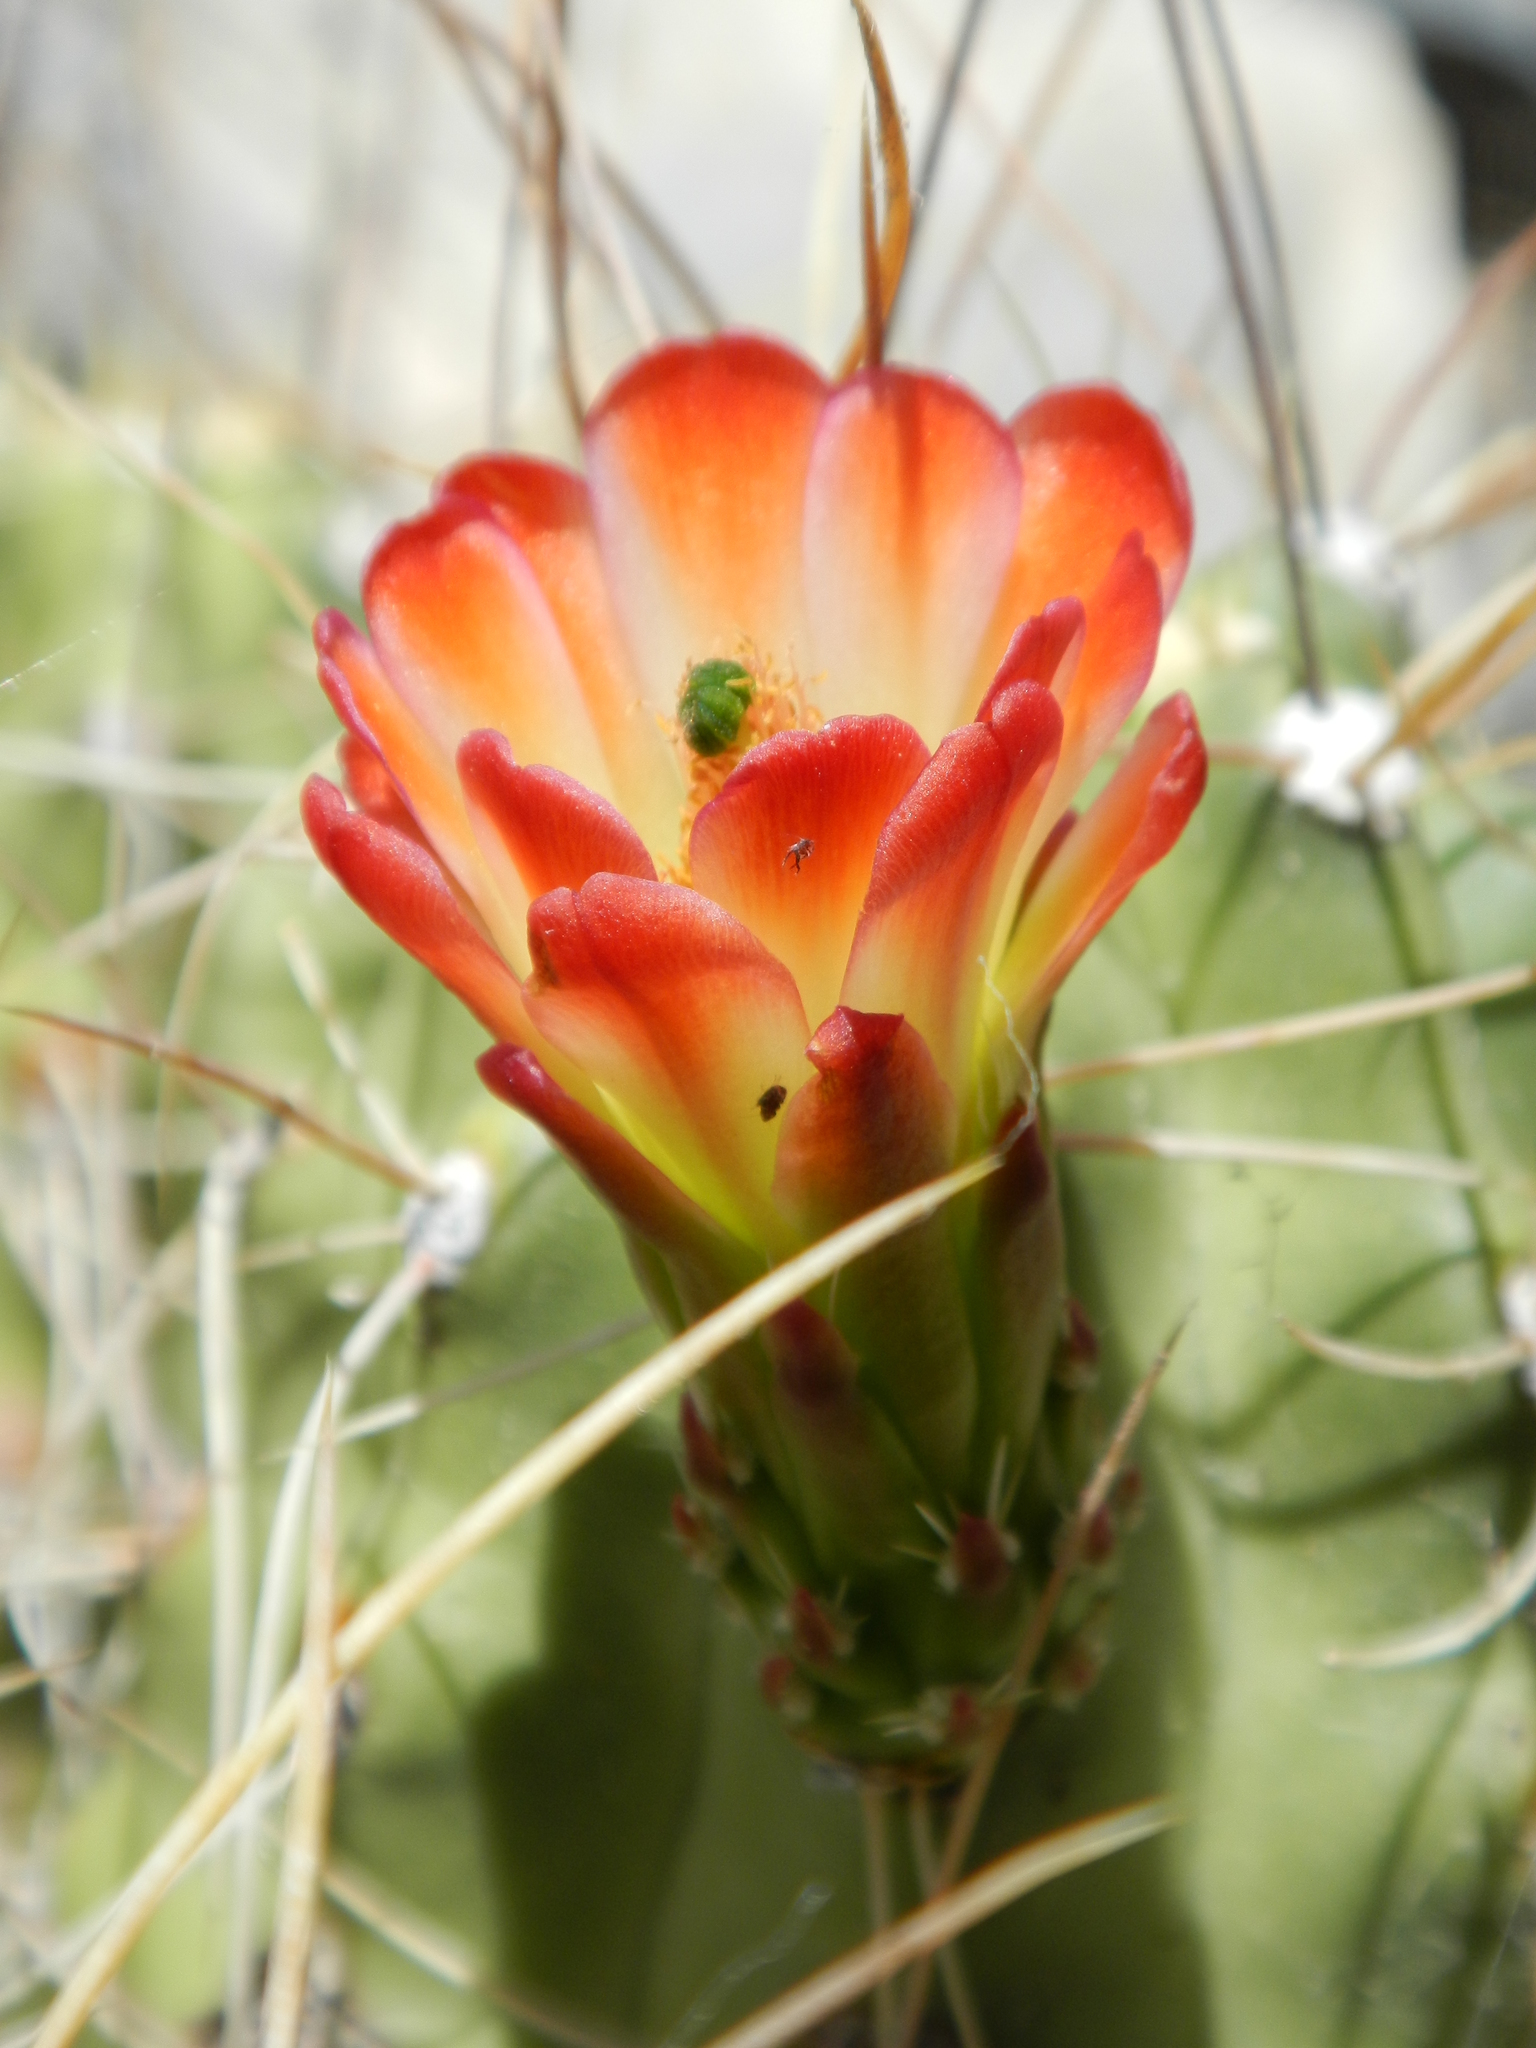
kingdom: Plantae
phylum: Tracheophyta
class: Magnoliopsida
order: Caryophyllales
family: Cactaceae
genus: Echinocereus
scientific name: Echinocereus triglochidiatus
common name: Claretcup hedgehog
